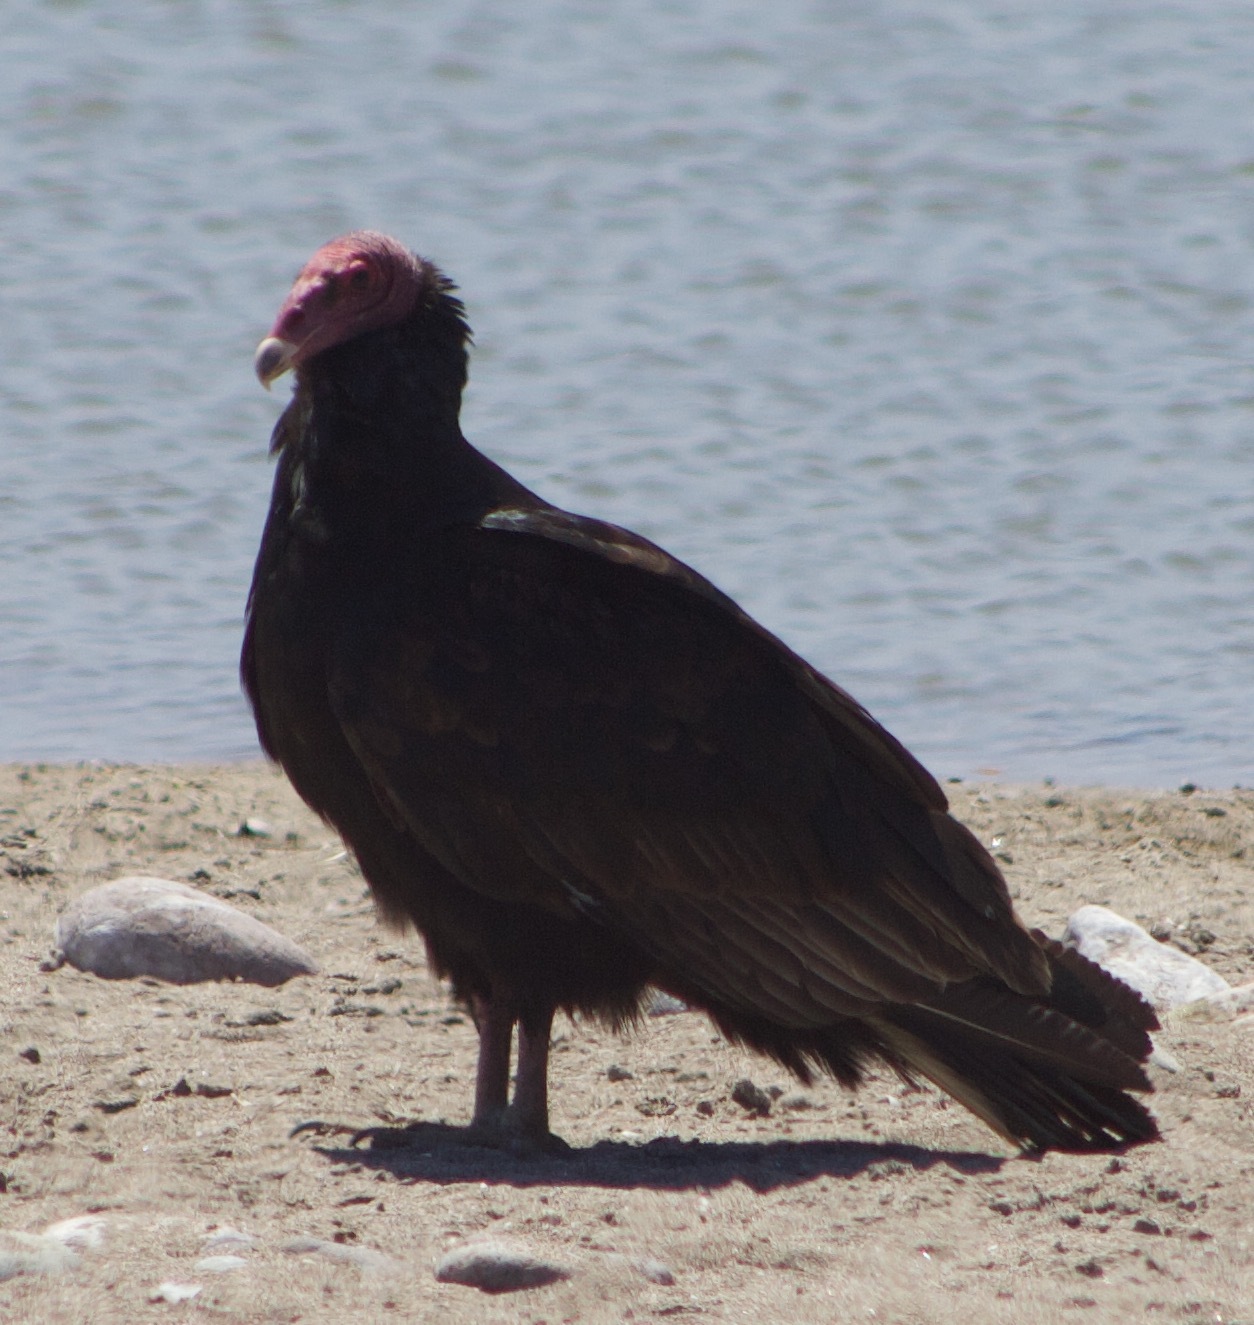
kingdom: Animalia
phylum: Chordata
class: Aves
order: Accipitriformes
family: Cathartidae
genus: Cathartes
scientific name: Cathartes aura
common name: Turkey vulture
